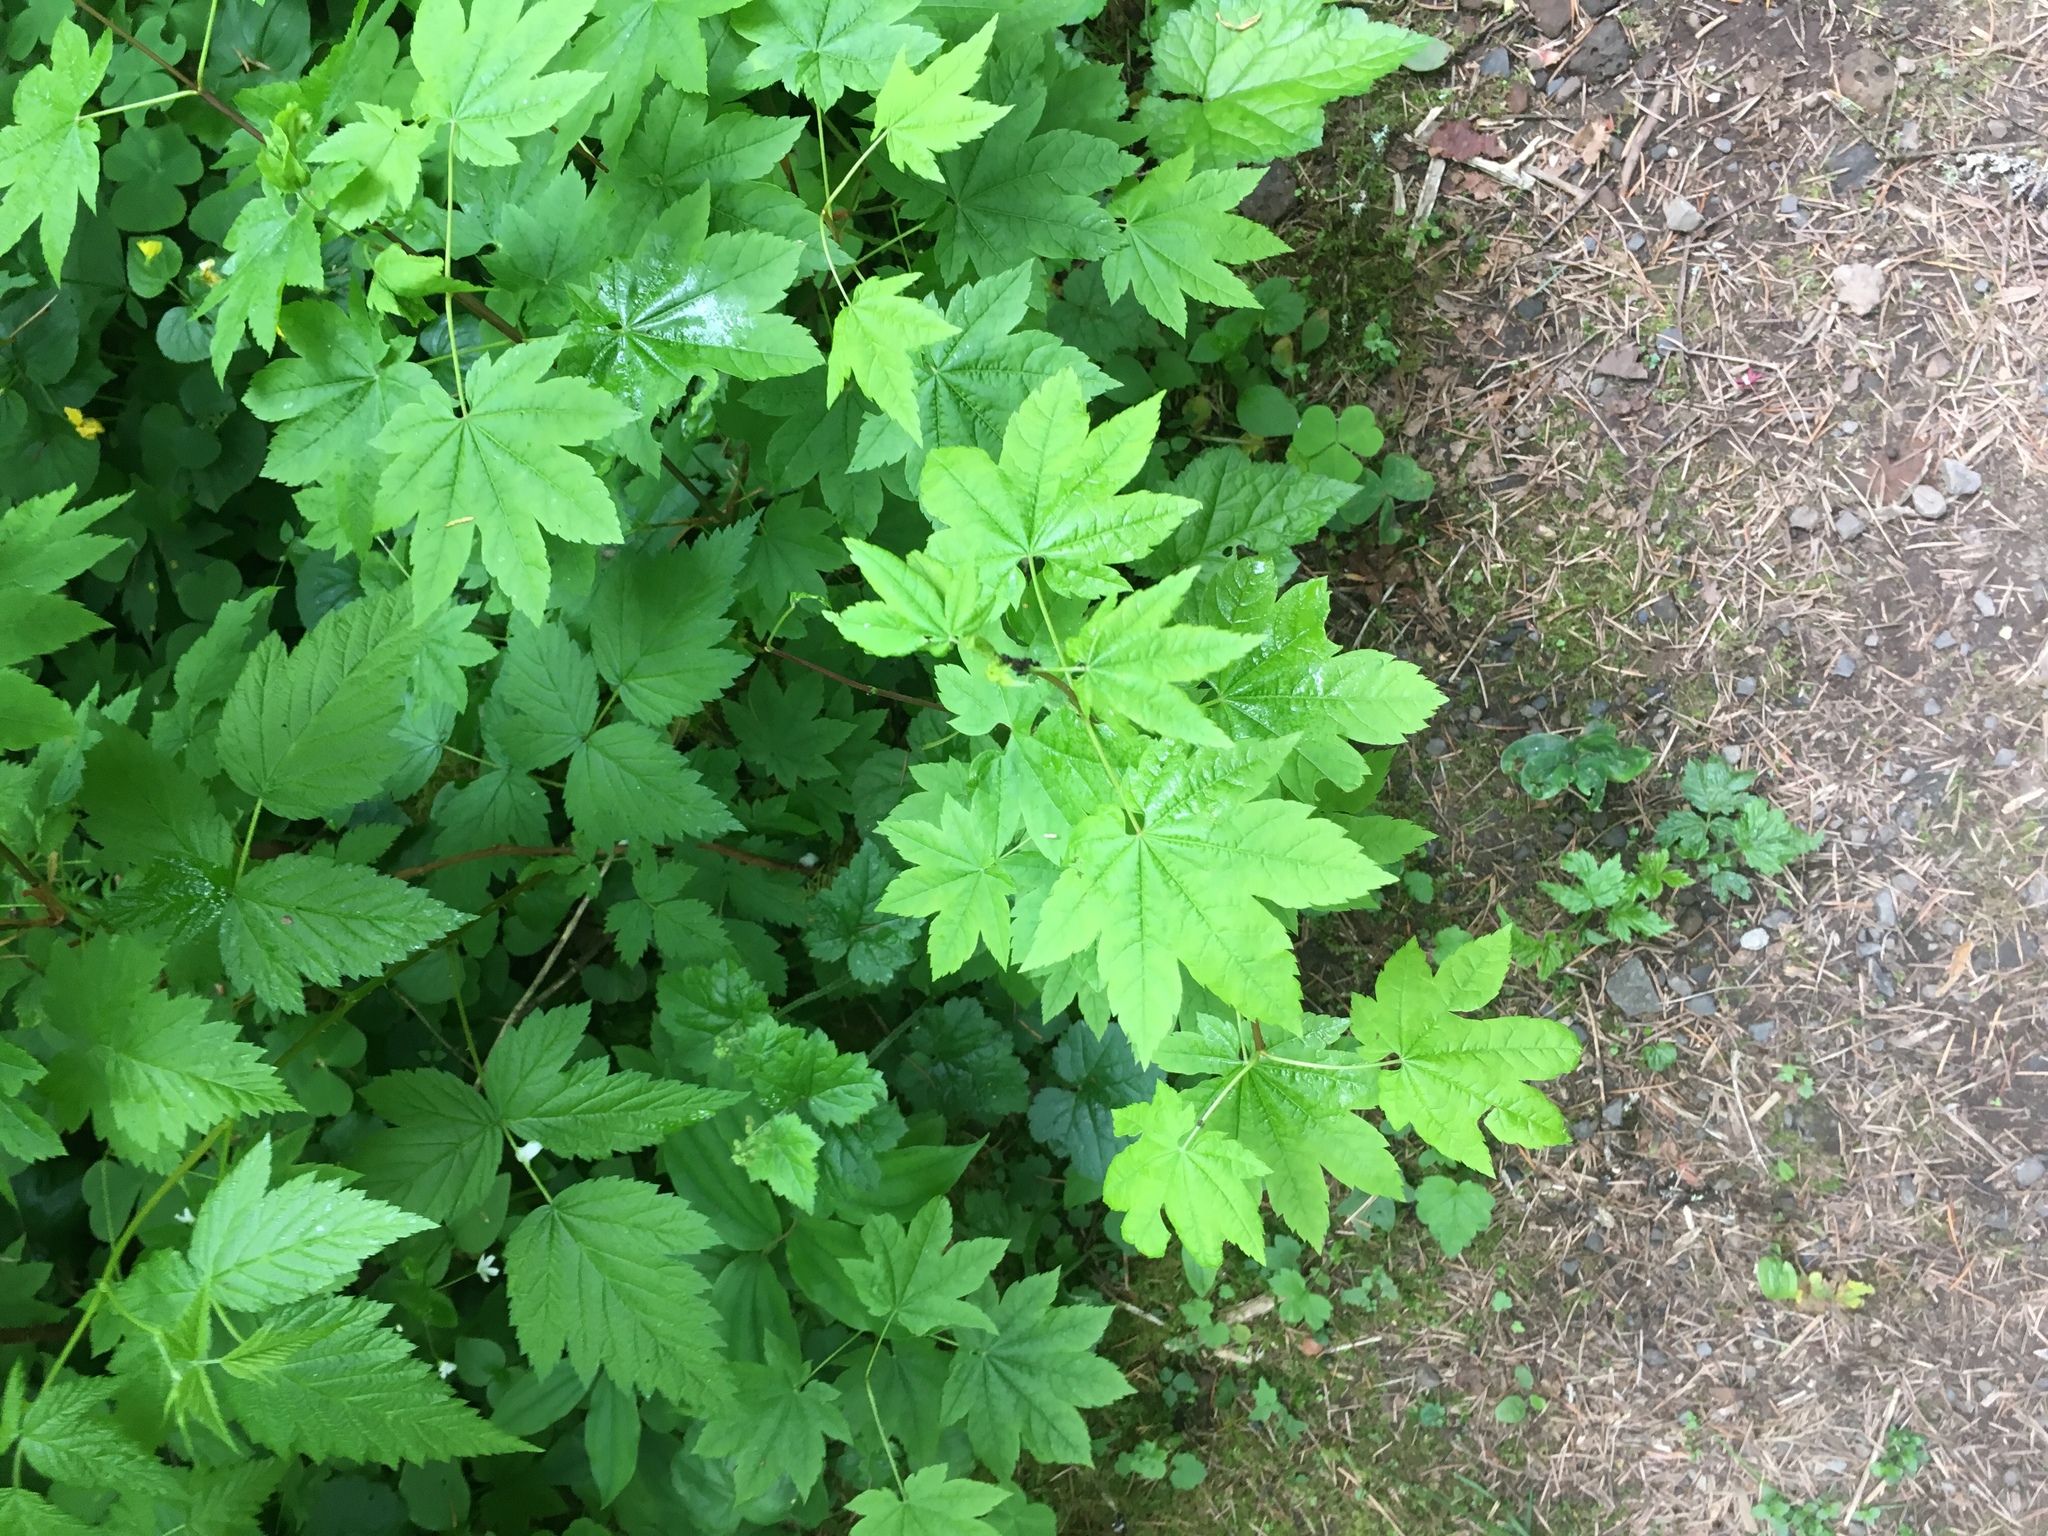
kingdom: Plantae
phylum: Tracheophyta
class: Magnoliopsida
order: Sapindales
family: Sapindaceae
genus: Acer
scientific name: Acer circinatum
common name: Vine maple
